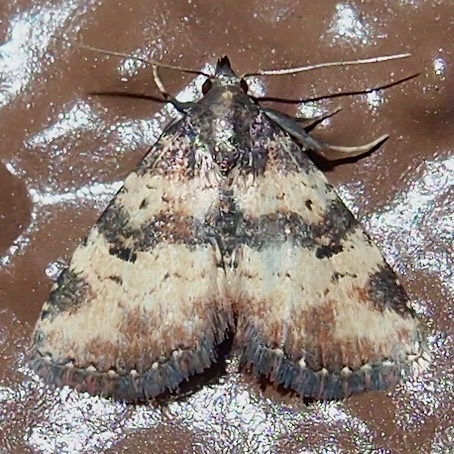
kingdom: Animalia
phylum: Arthropoda
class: Insecta
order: Lepidoptera
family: Erebidae
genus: Metalectra
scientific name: Metalectra edilis
